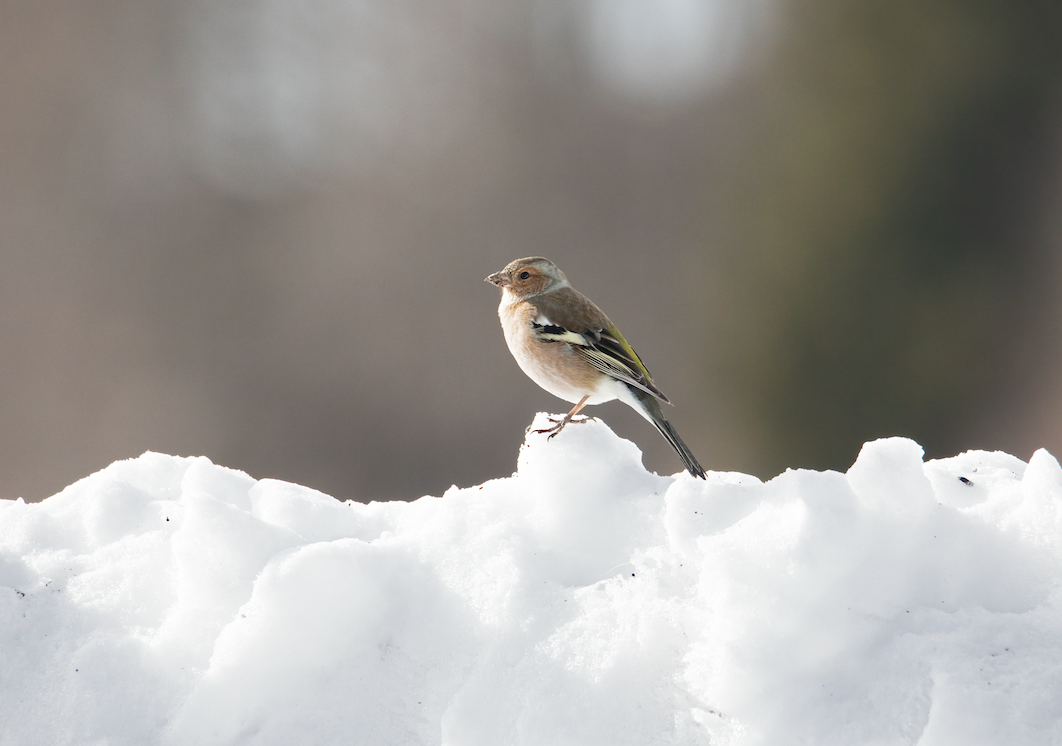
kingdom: Animalia
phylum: Chordata
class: Aves
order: Passeriformes
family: Fringillidae
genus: Fringilla
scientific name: Fringilla coelebs
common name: Common chaffinch
